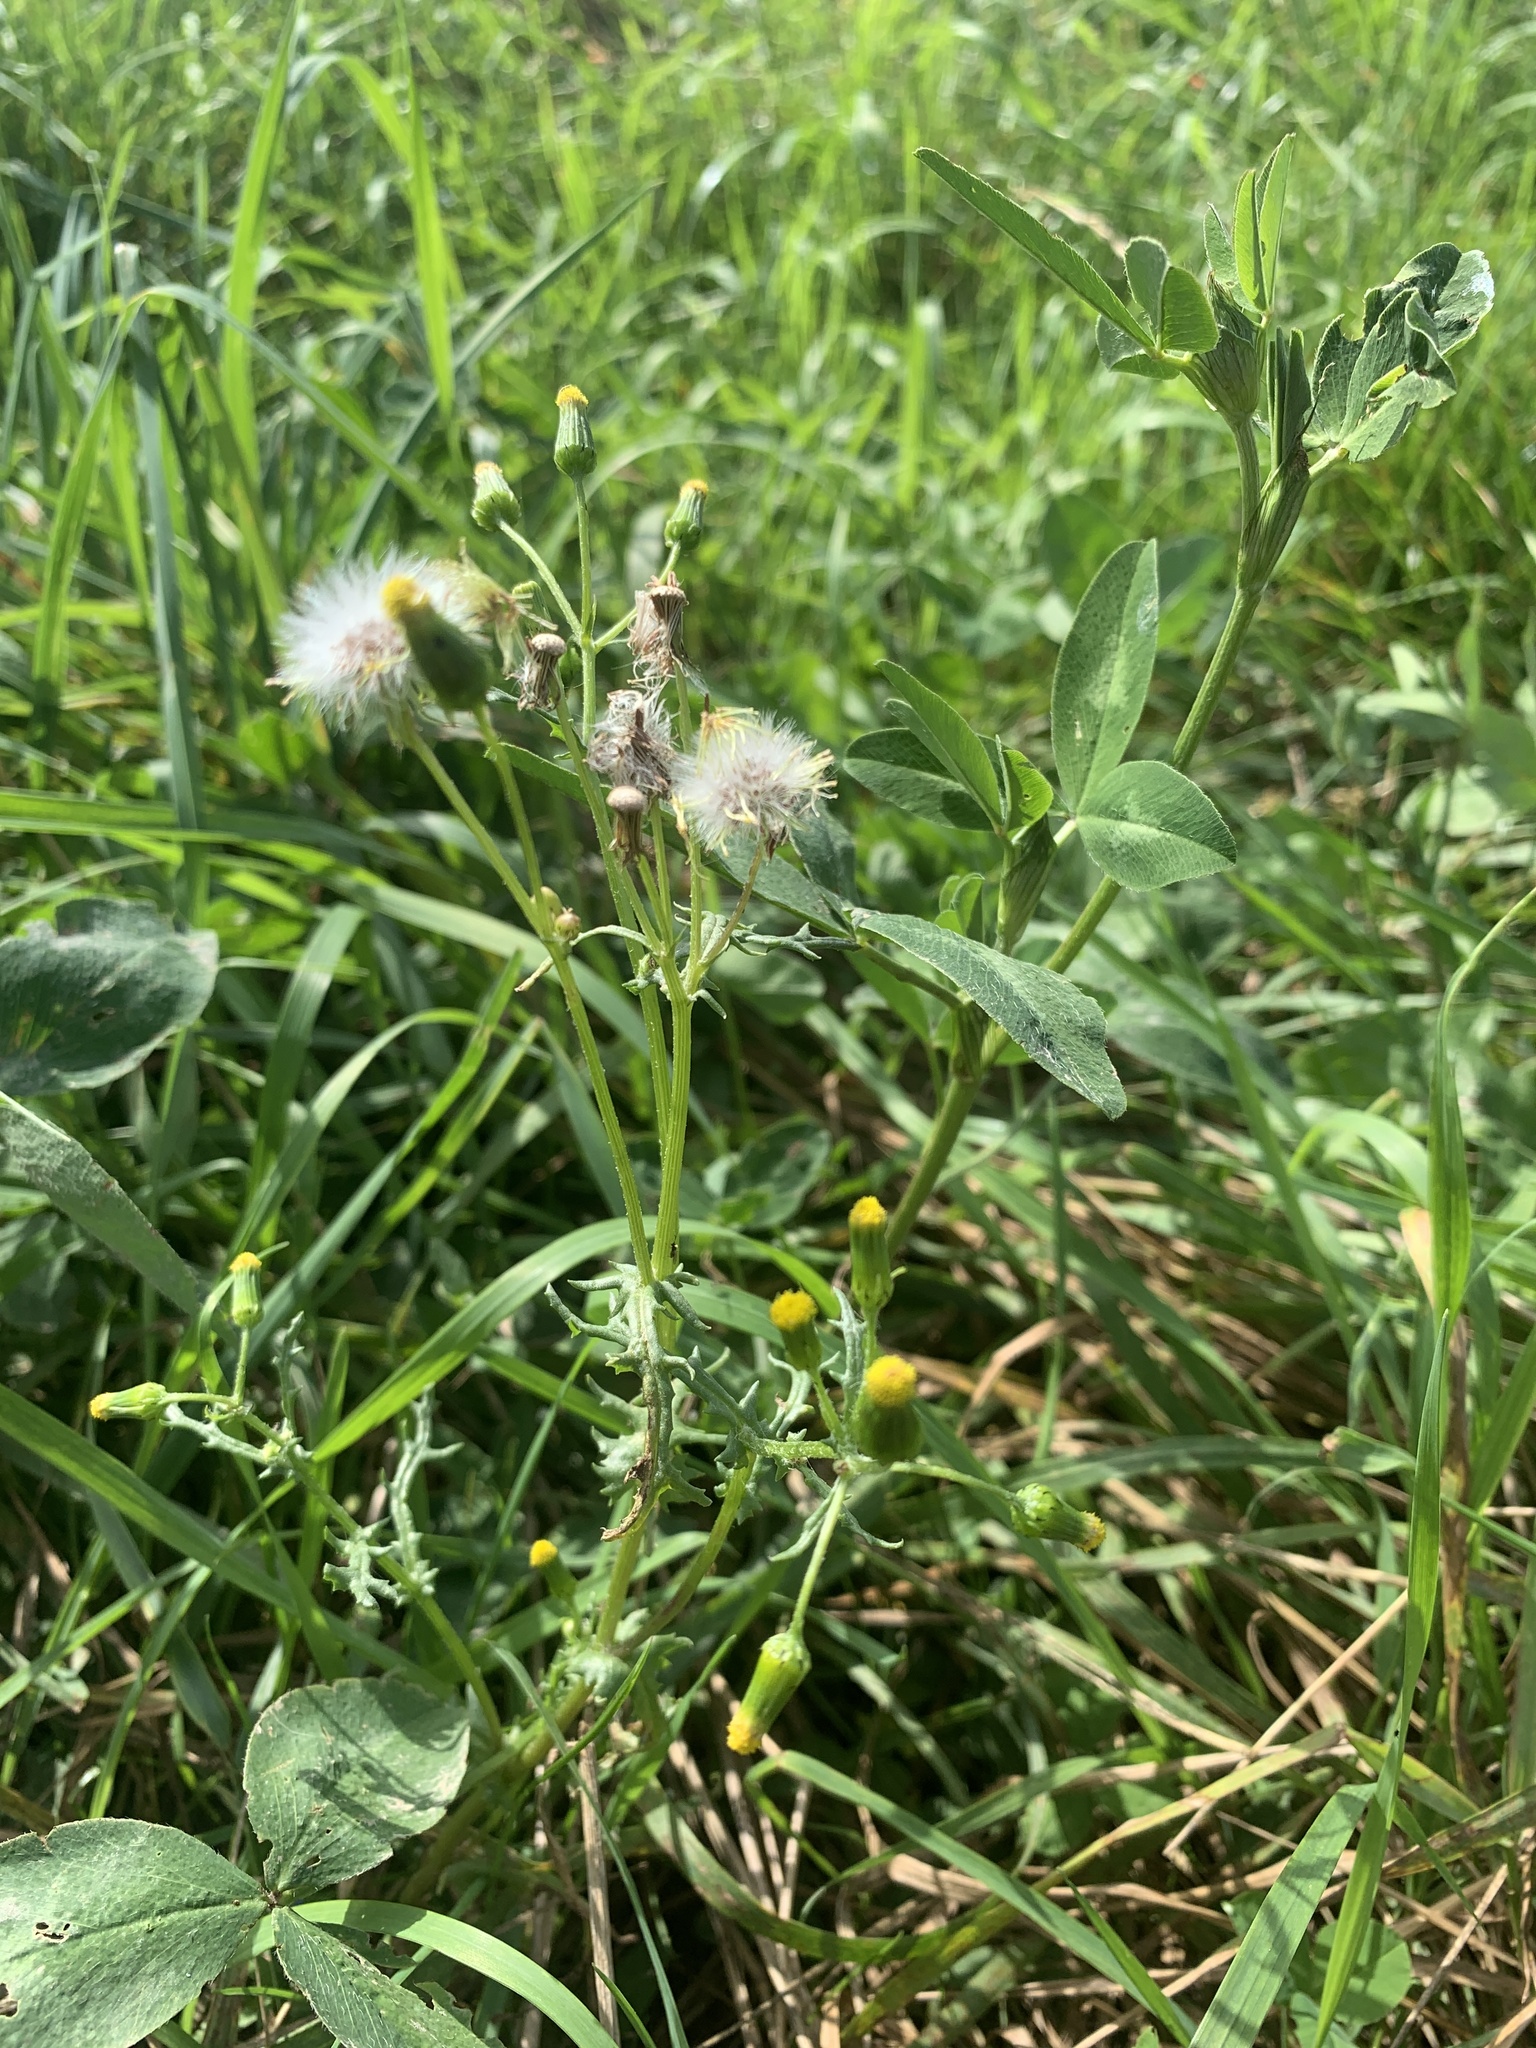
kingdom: Plantae
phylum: Tracheophyta
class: Magnoliopsida
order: Asterales
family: Asteraceae
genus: Senecio
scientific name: Senecio vulgaris
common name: Old-man-in-the-spring
